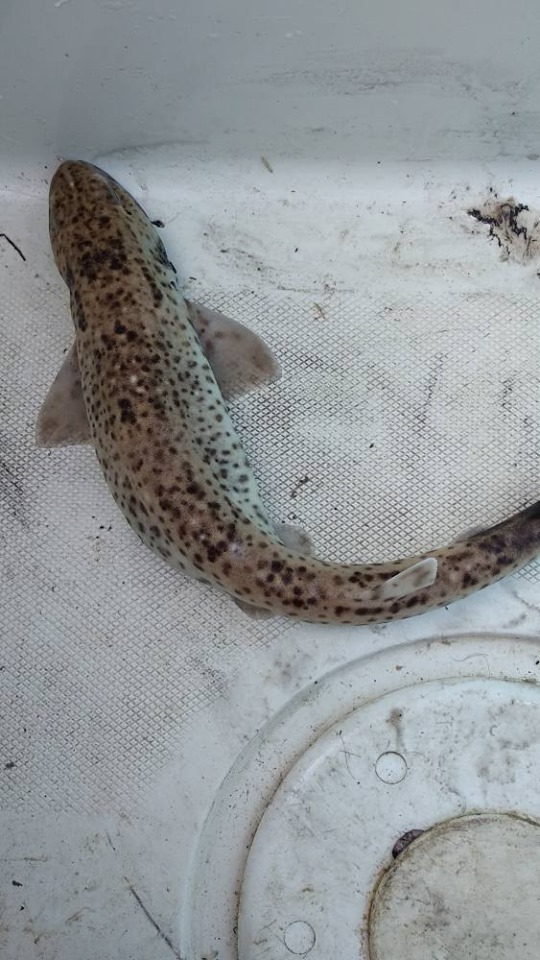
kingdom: Animalia
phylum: Chordata
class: Elasmobranchii
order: Carcharhiniformes
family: Scyliorhinidae
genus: Scyliorhinus
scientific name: Scyliorhinus
